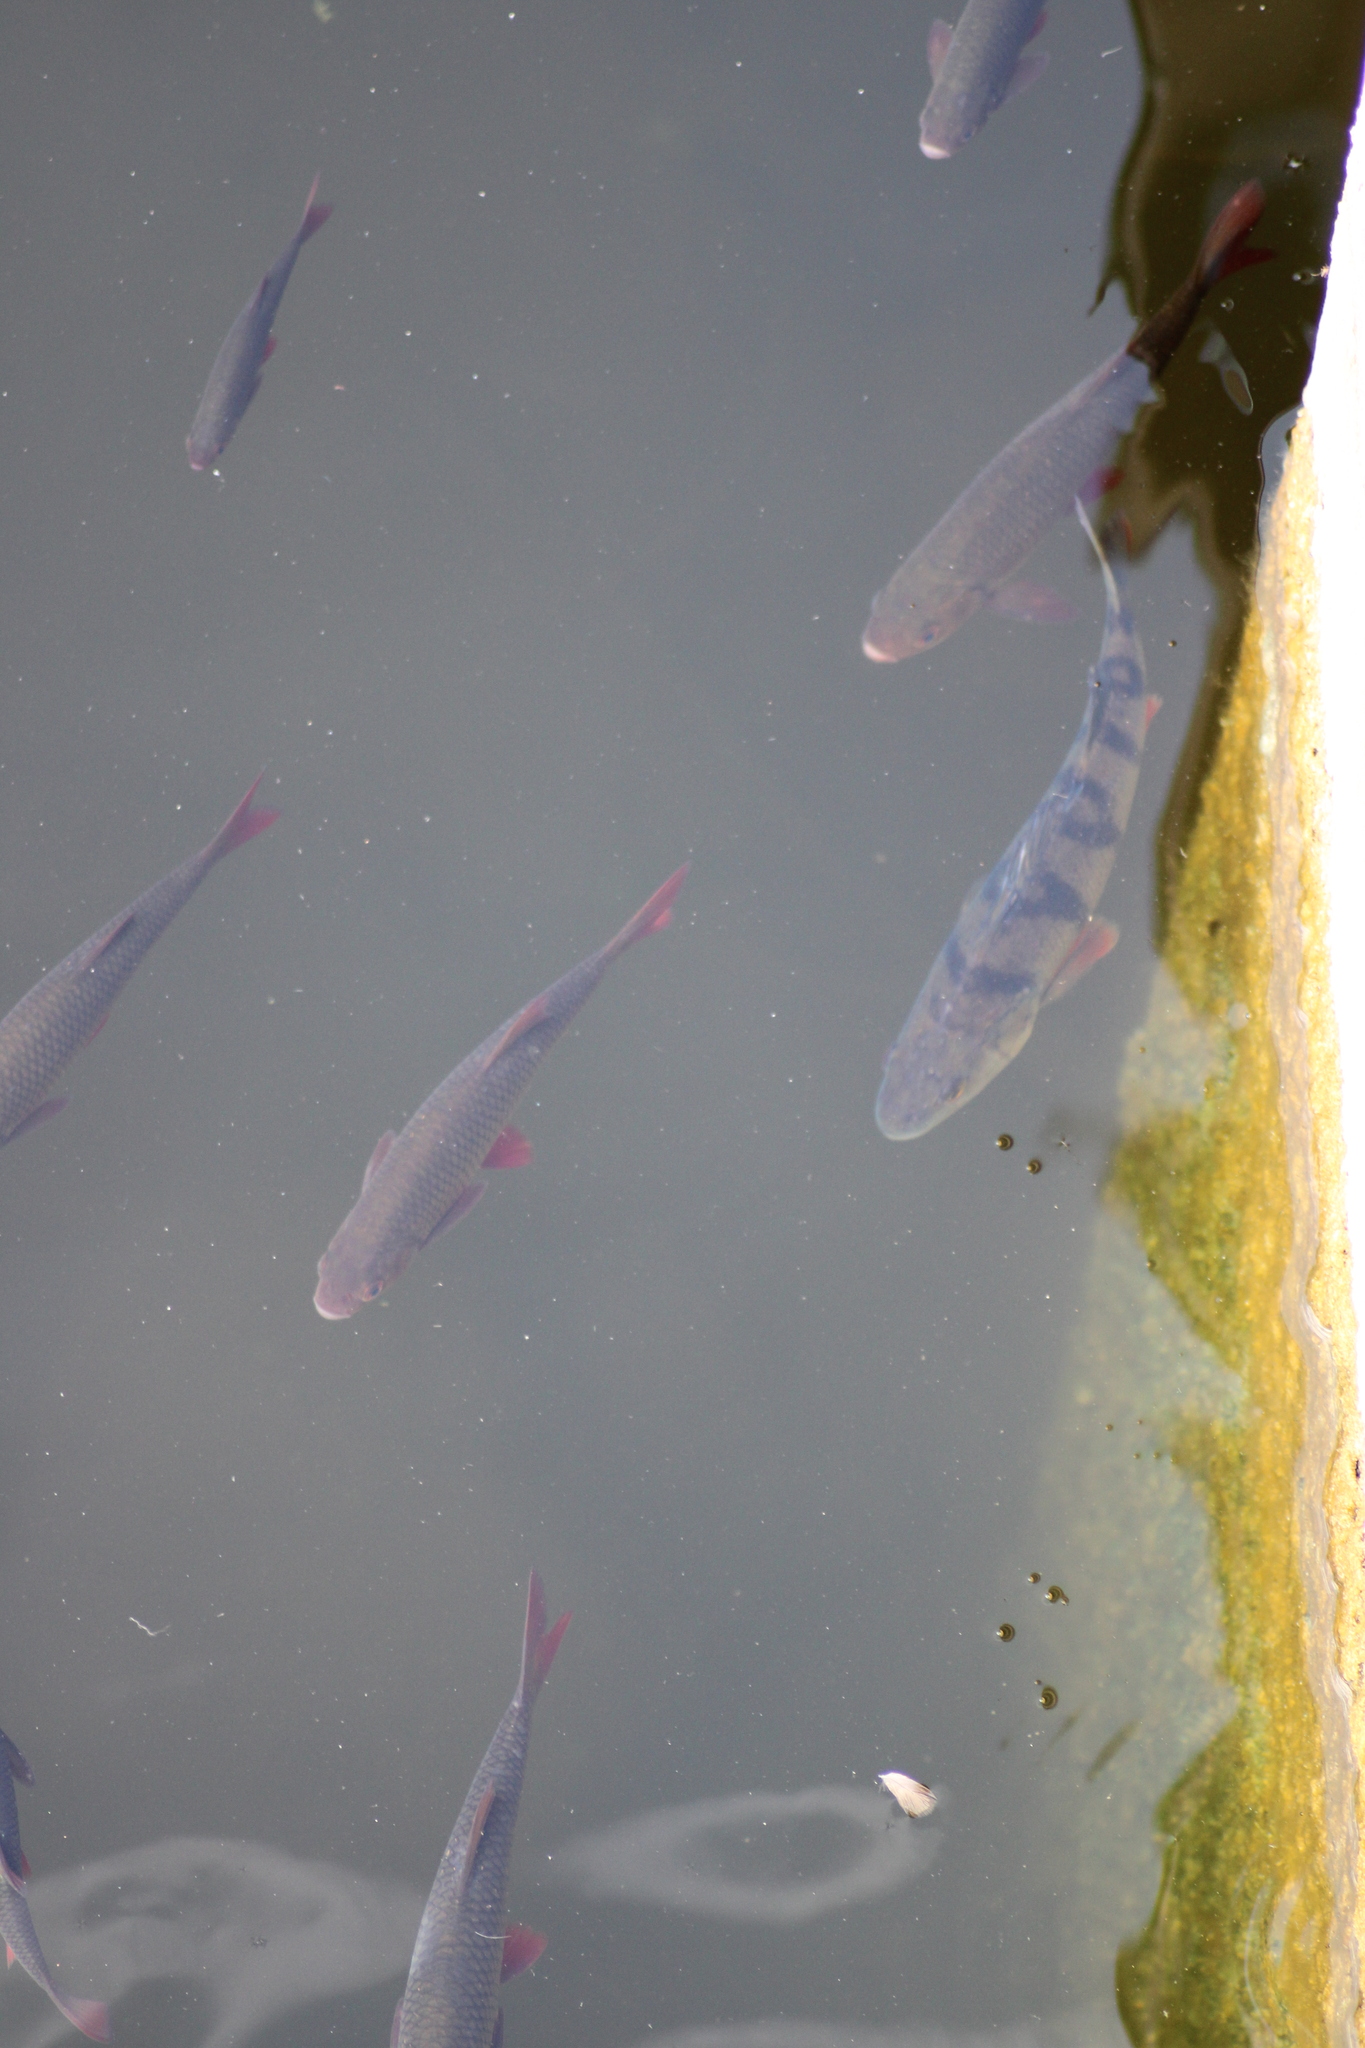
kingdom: Animalia
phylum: Chordata
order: Perciformes
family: Percidae
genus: Perca
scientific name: Perca fluviatilis
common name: Perch
